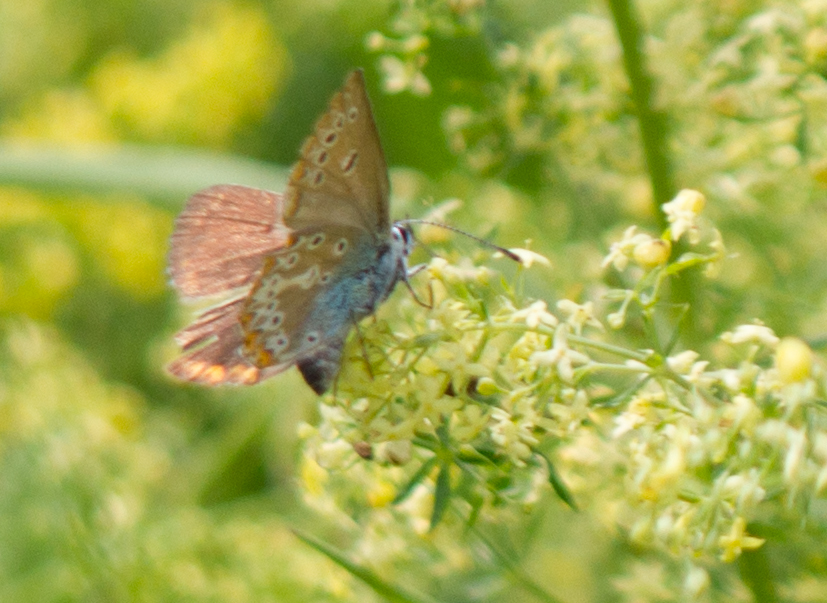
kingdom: Animalia
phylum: Arthropoda
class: Insecta
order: Lepidoptera
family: Lycaenidae
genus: Eumedonia
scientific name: Eumedonia eumedon
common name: Geranium argus
